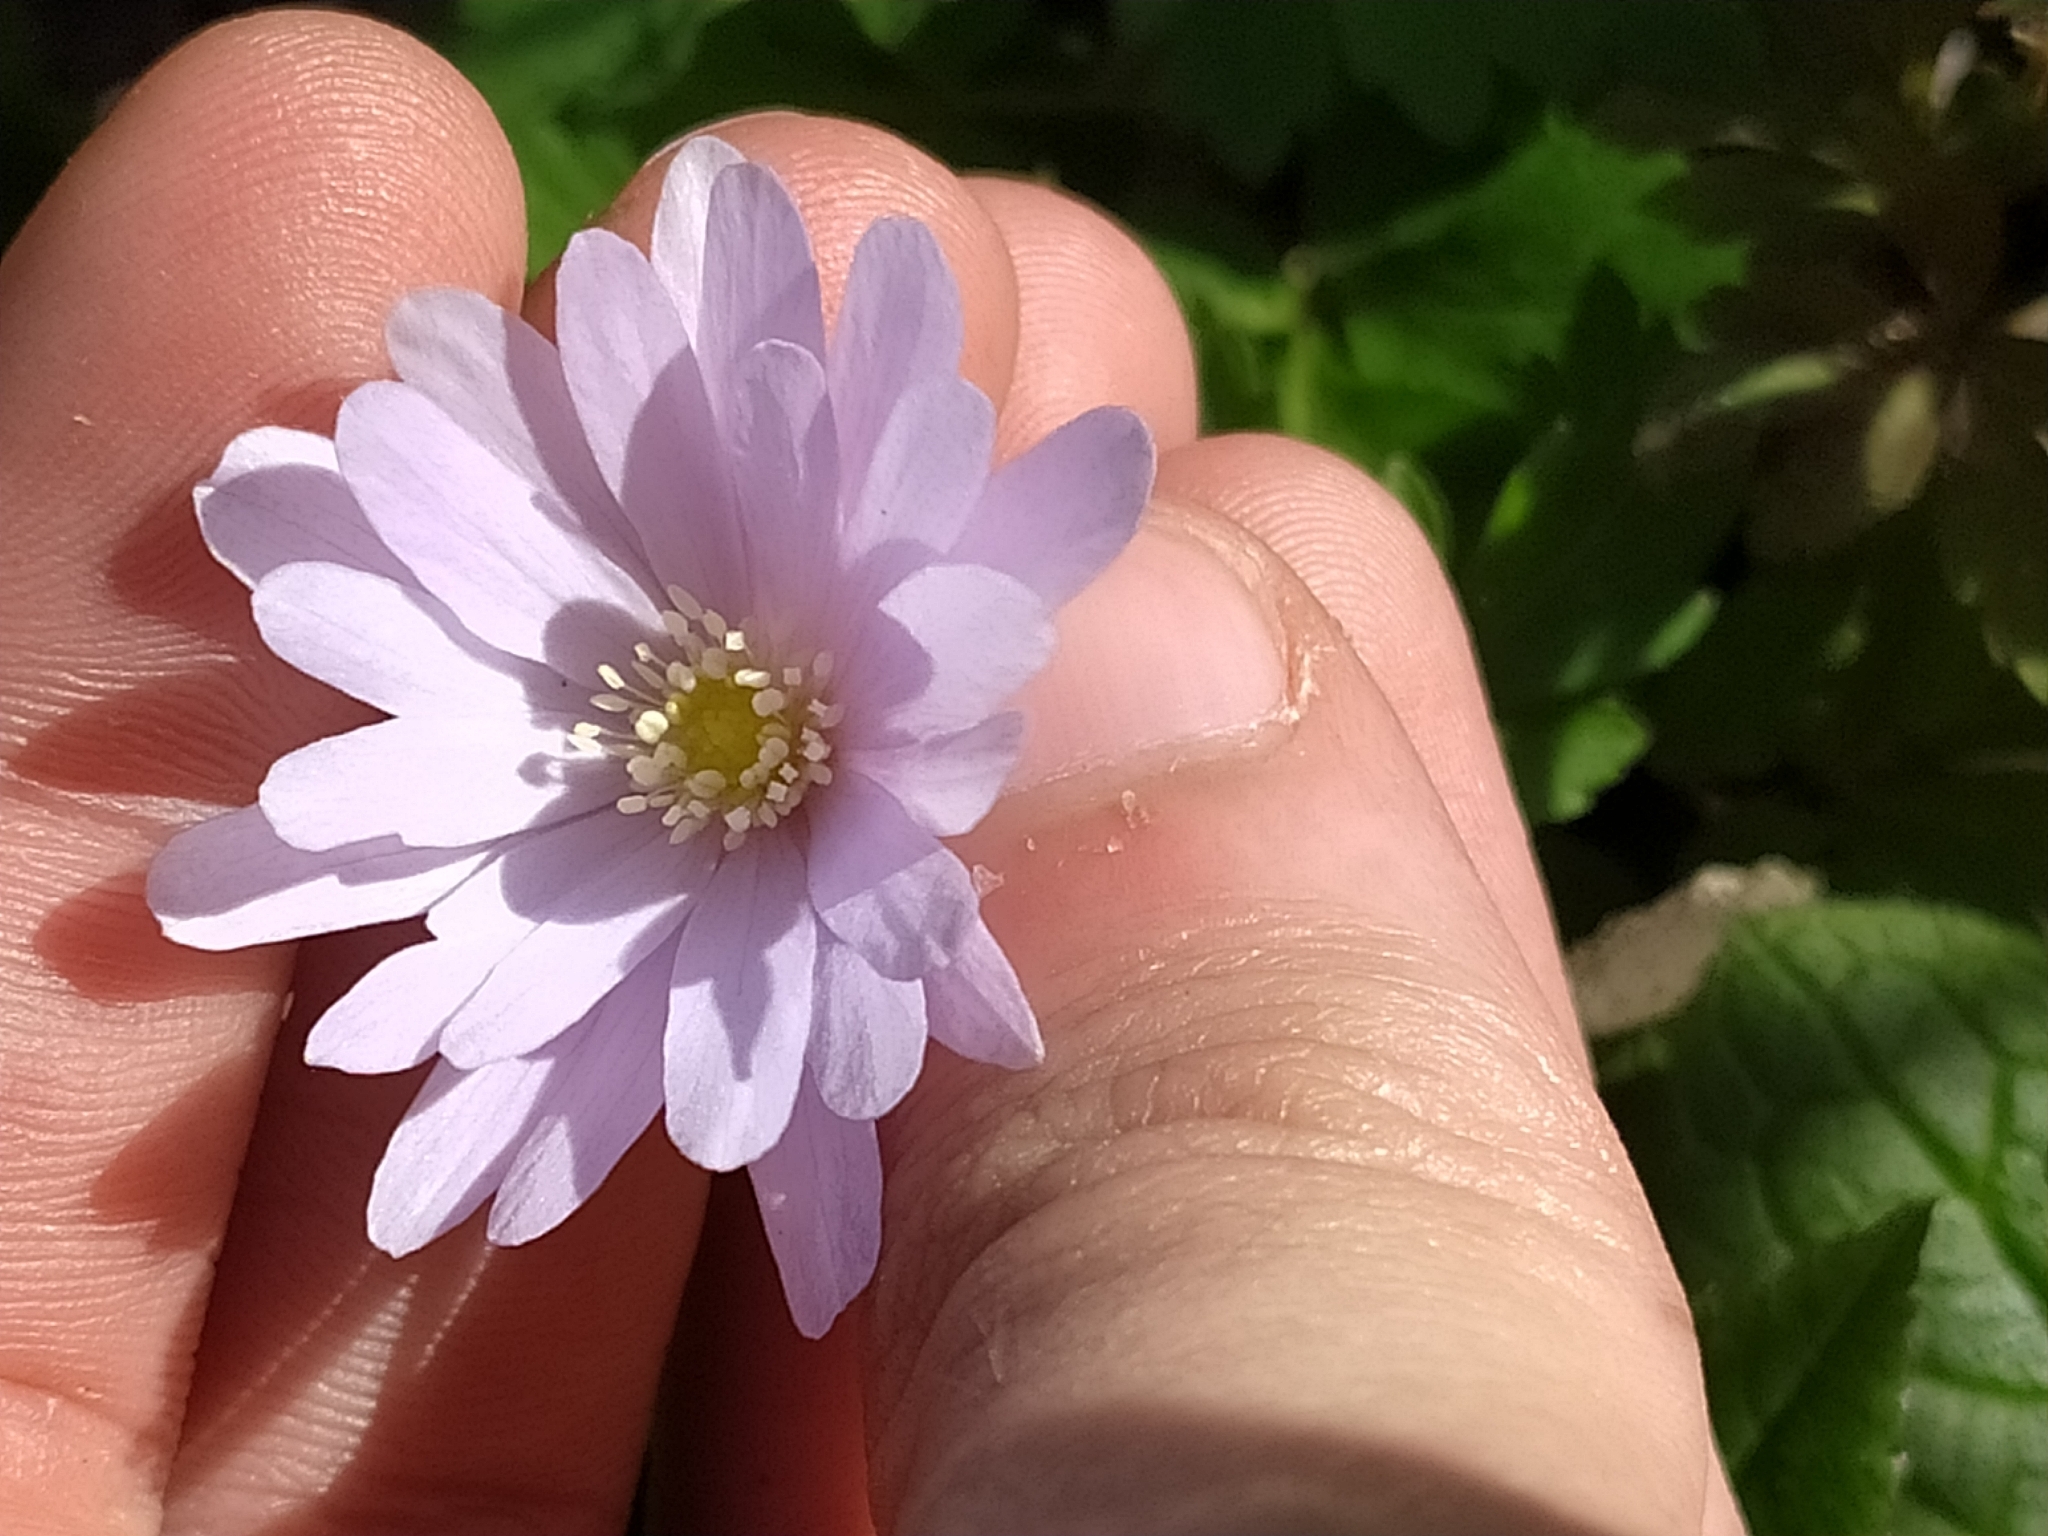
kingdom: Plantae
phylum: Tracheophyta
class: Magnoliopsida
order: Ranunculales
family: Ranunculaceae
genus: Anemone
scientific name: Anemone apennina
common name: Blue anemone
